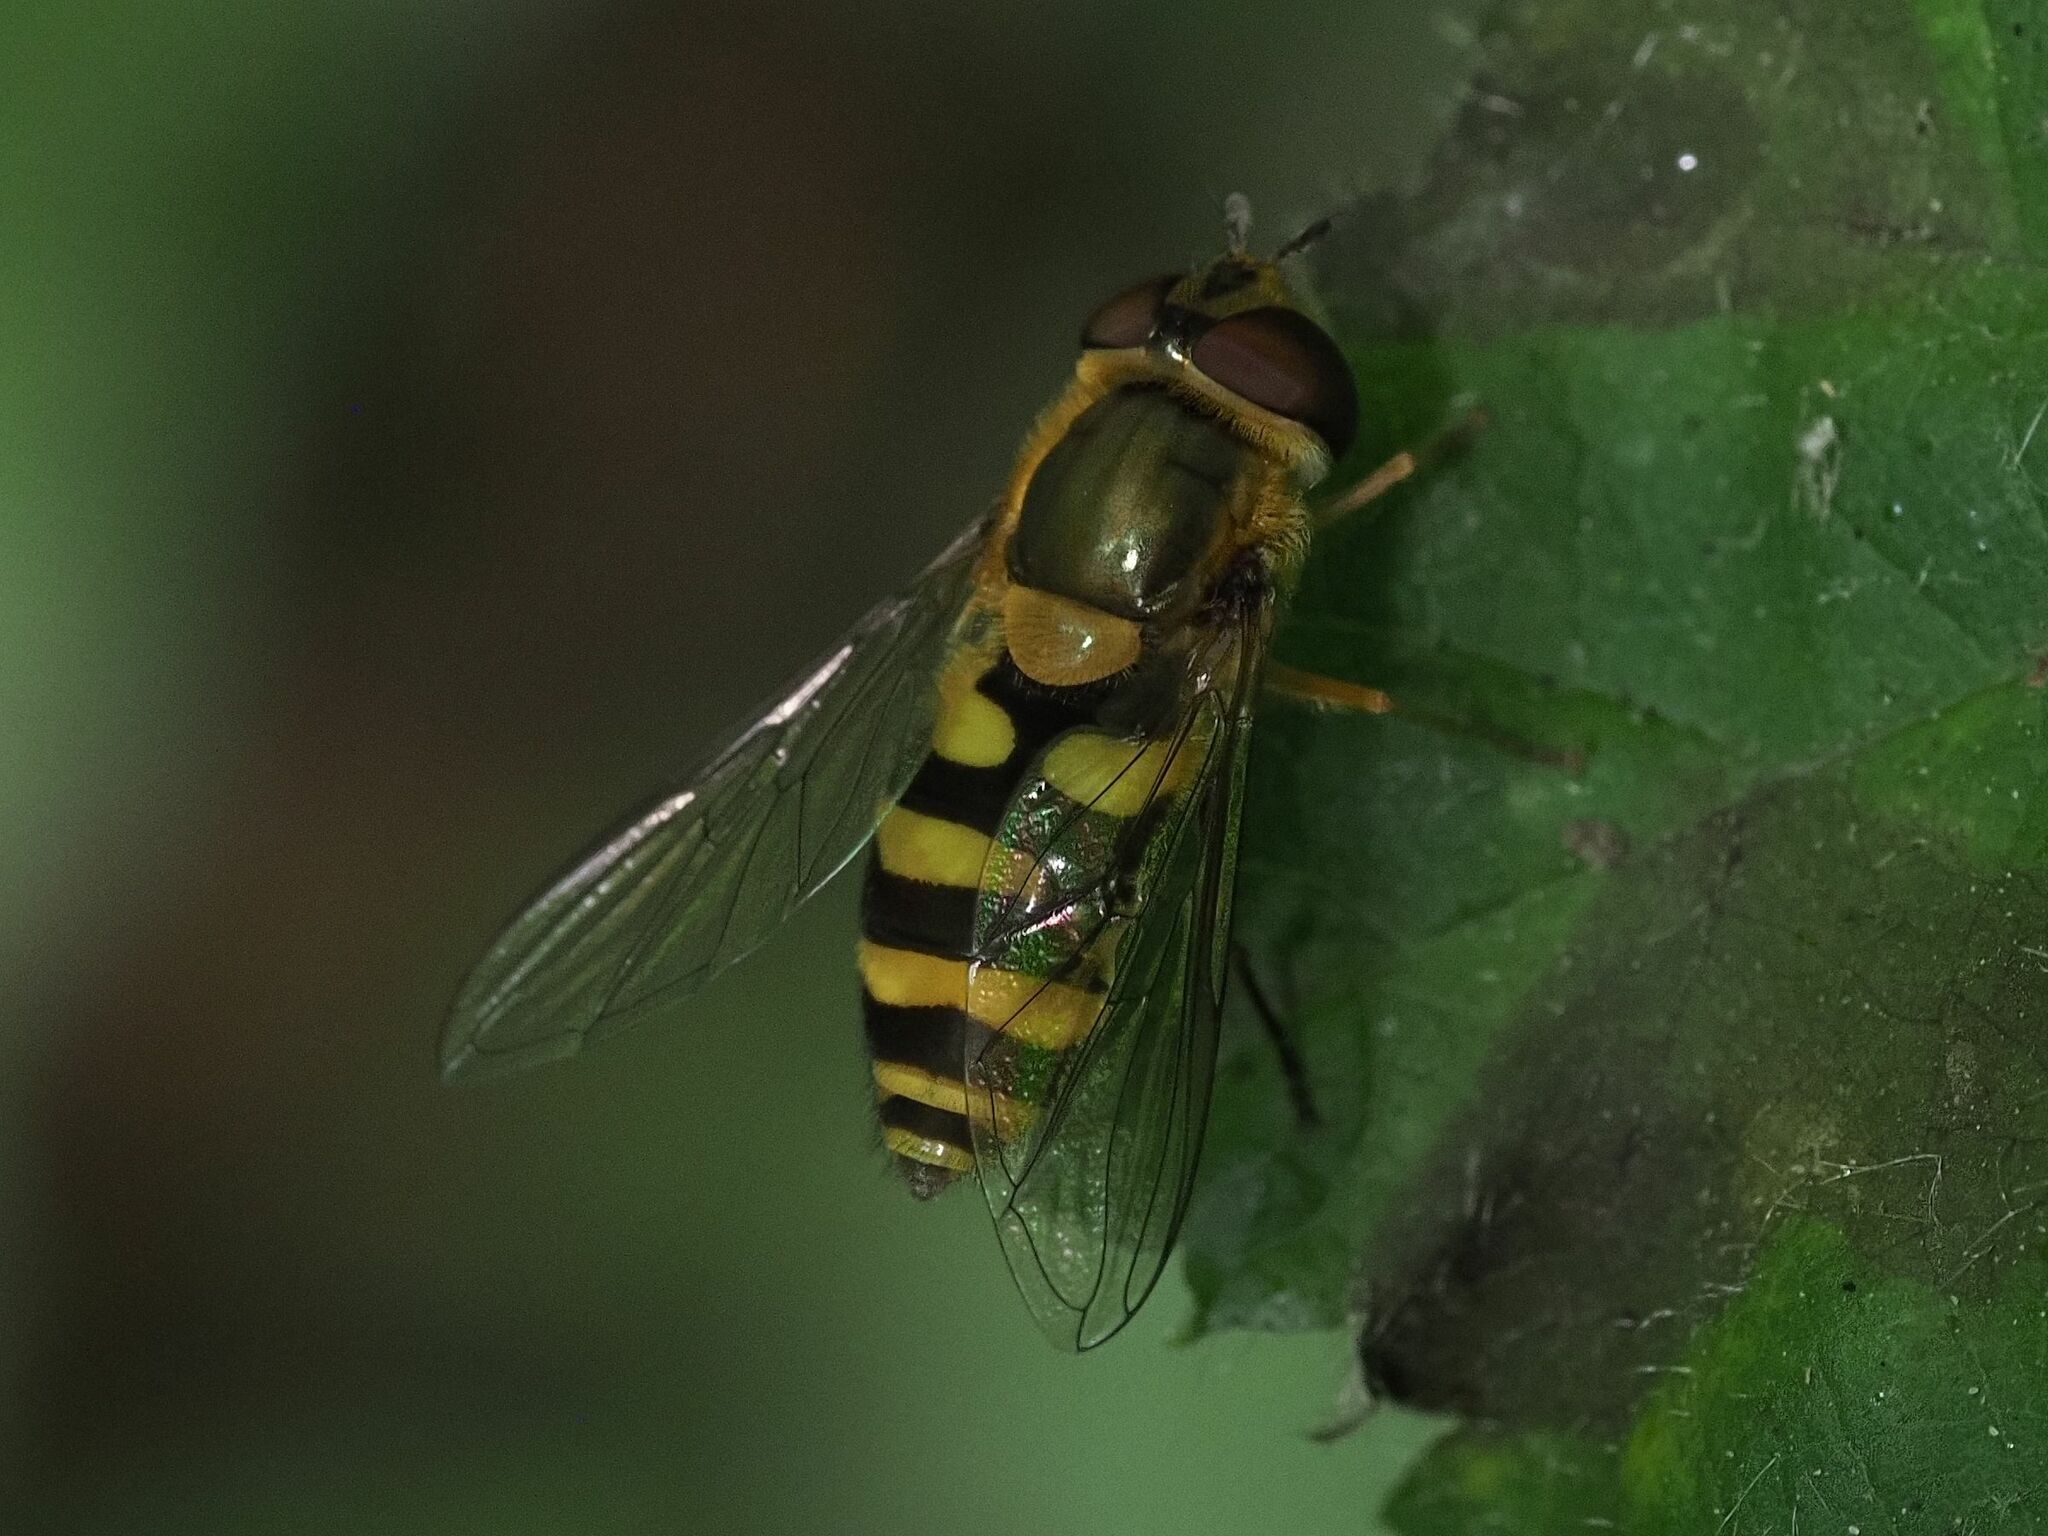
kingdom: Animalia
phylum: Arthropoda
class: Insecta
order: Diptera
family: Syrphidae
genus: Syrphus
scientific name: Syrphus
